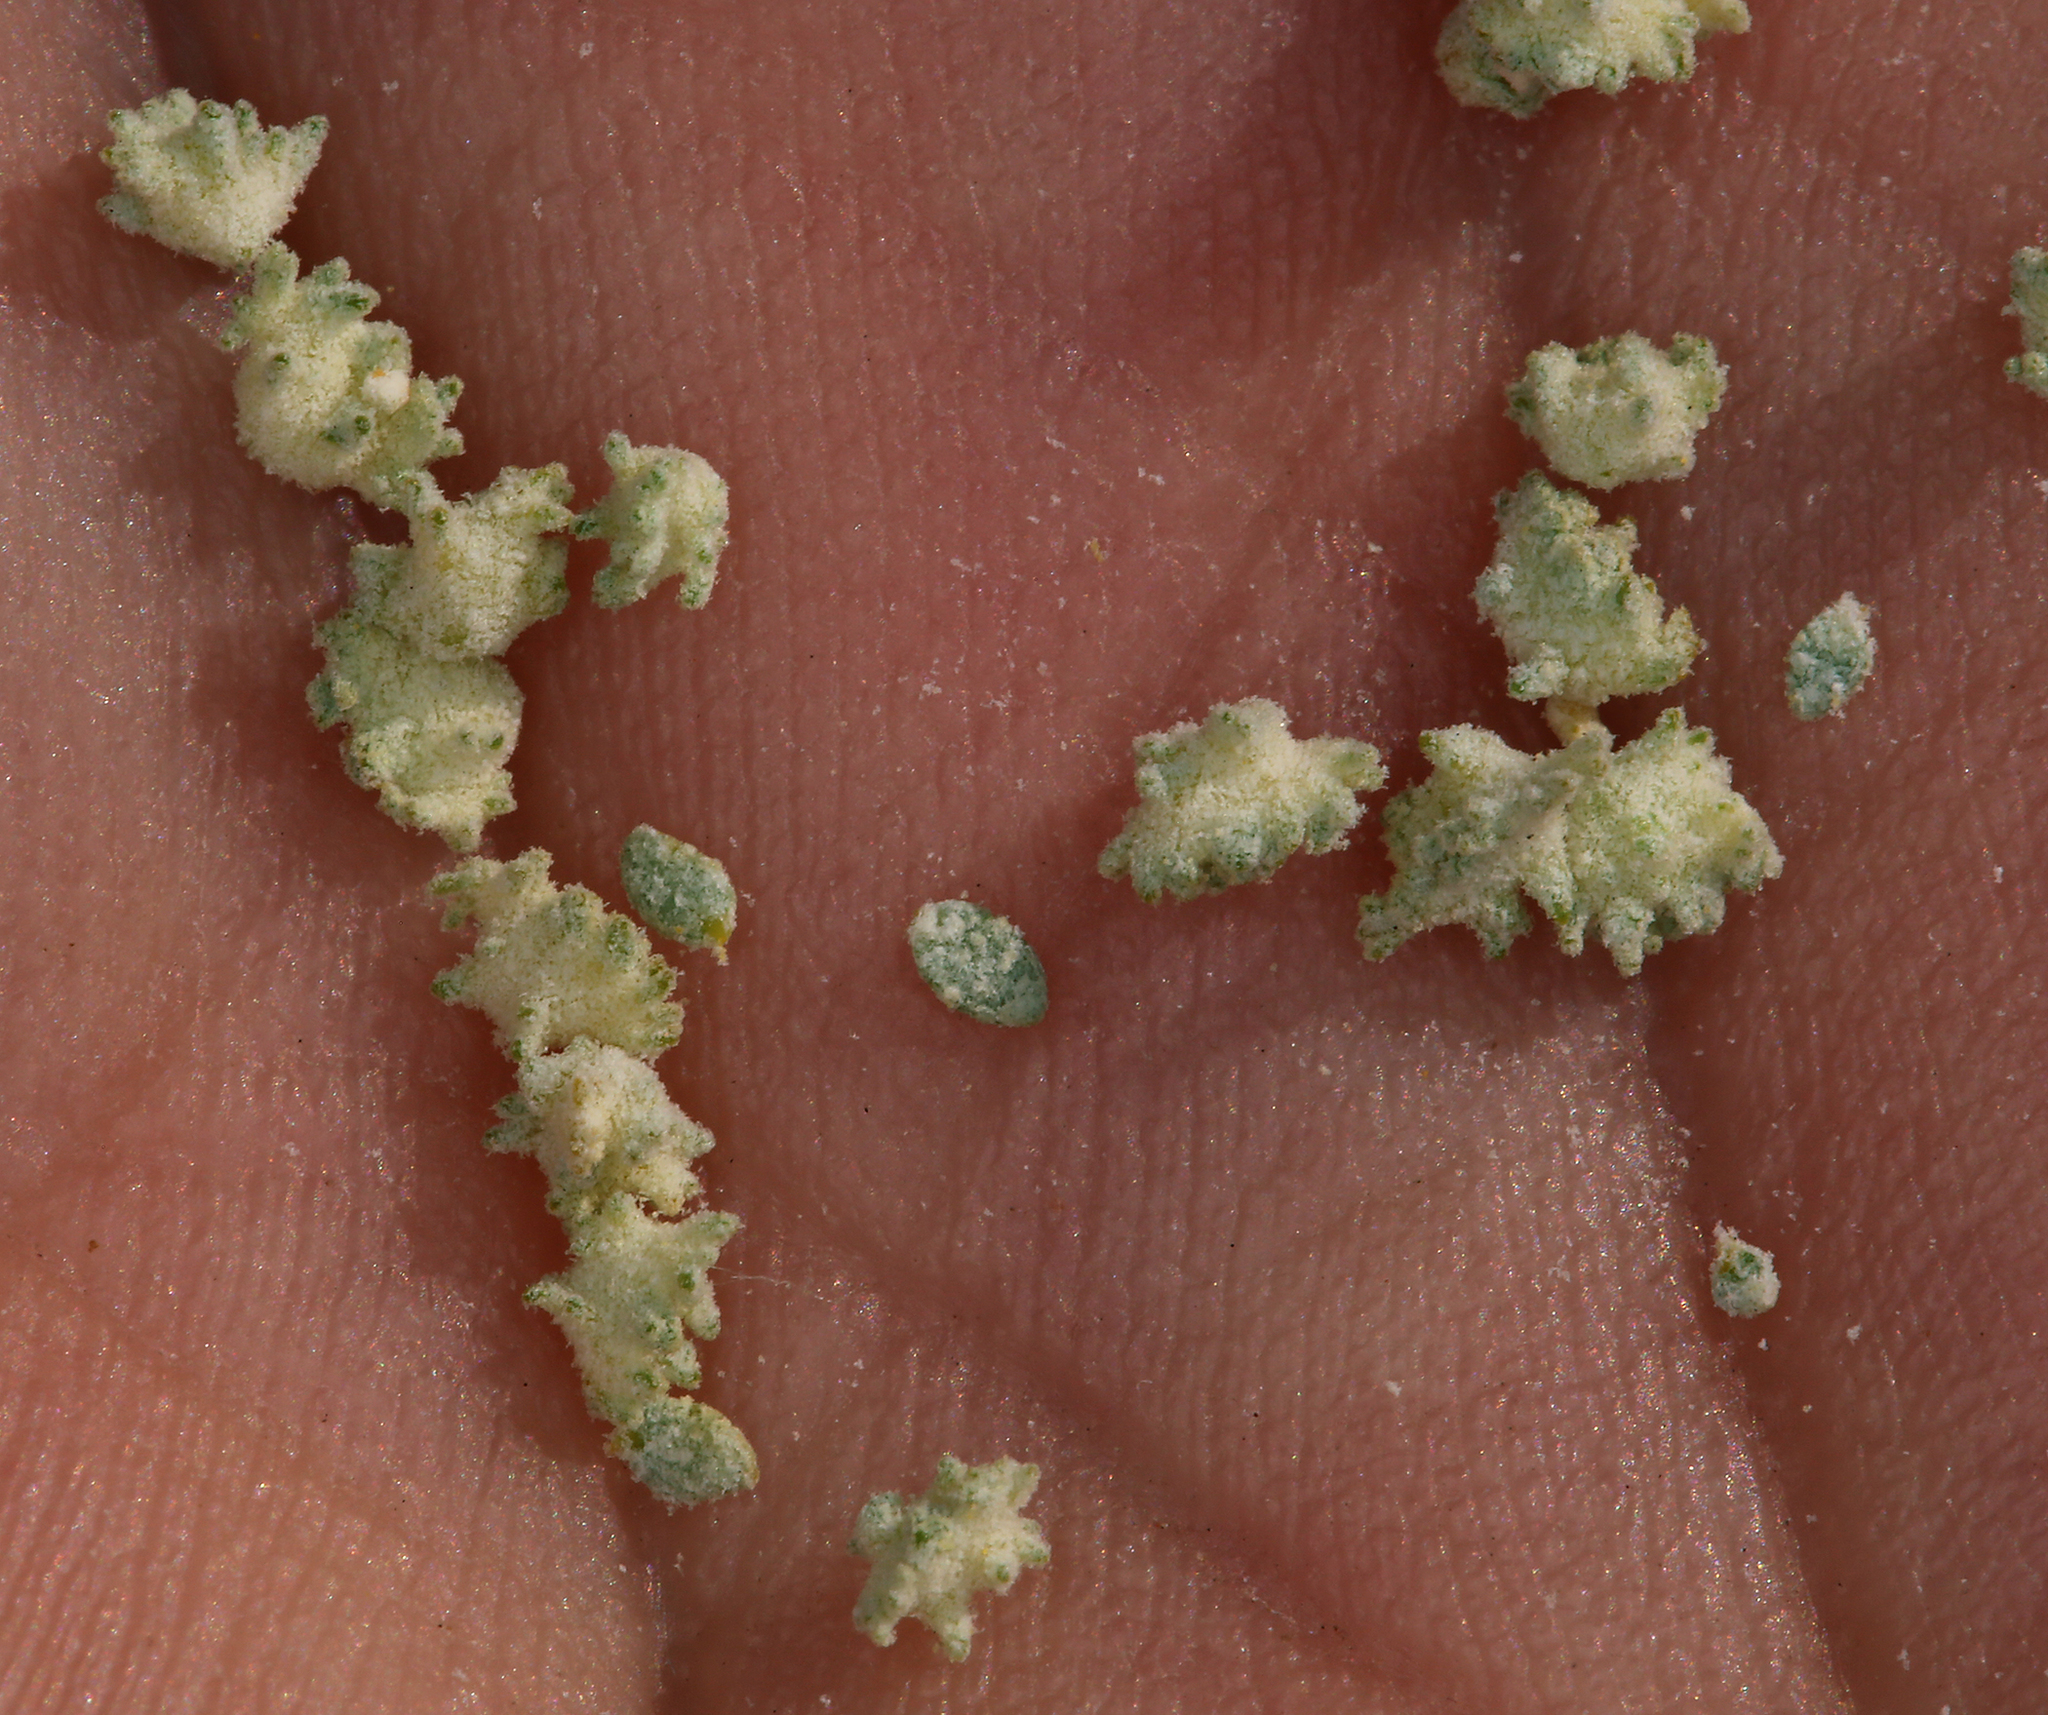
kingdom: Plantae
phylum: Tracheophyta
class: Magnoliopsida
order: Caryophyllales
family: Amaranthaceae
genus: Atriplex
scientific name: Atriplex polycarpa
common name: Desert saltbush
